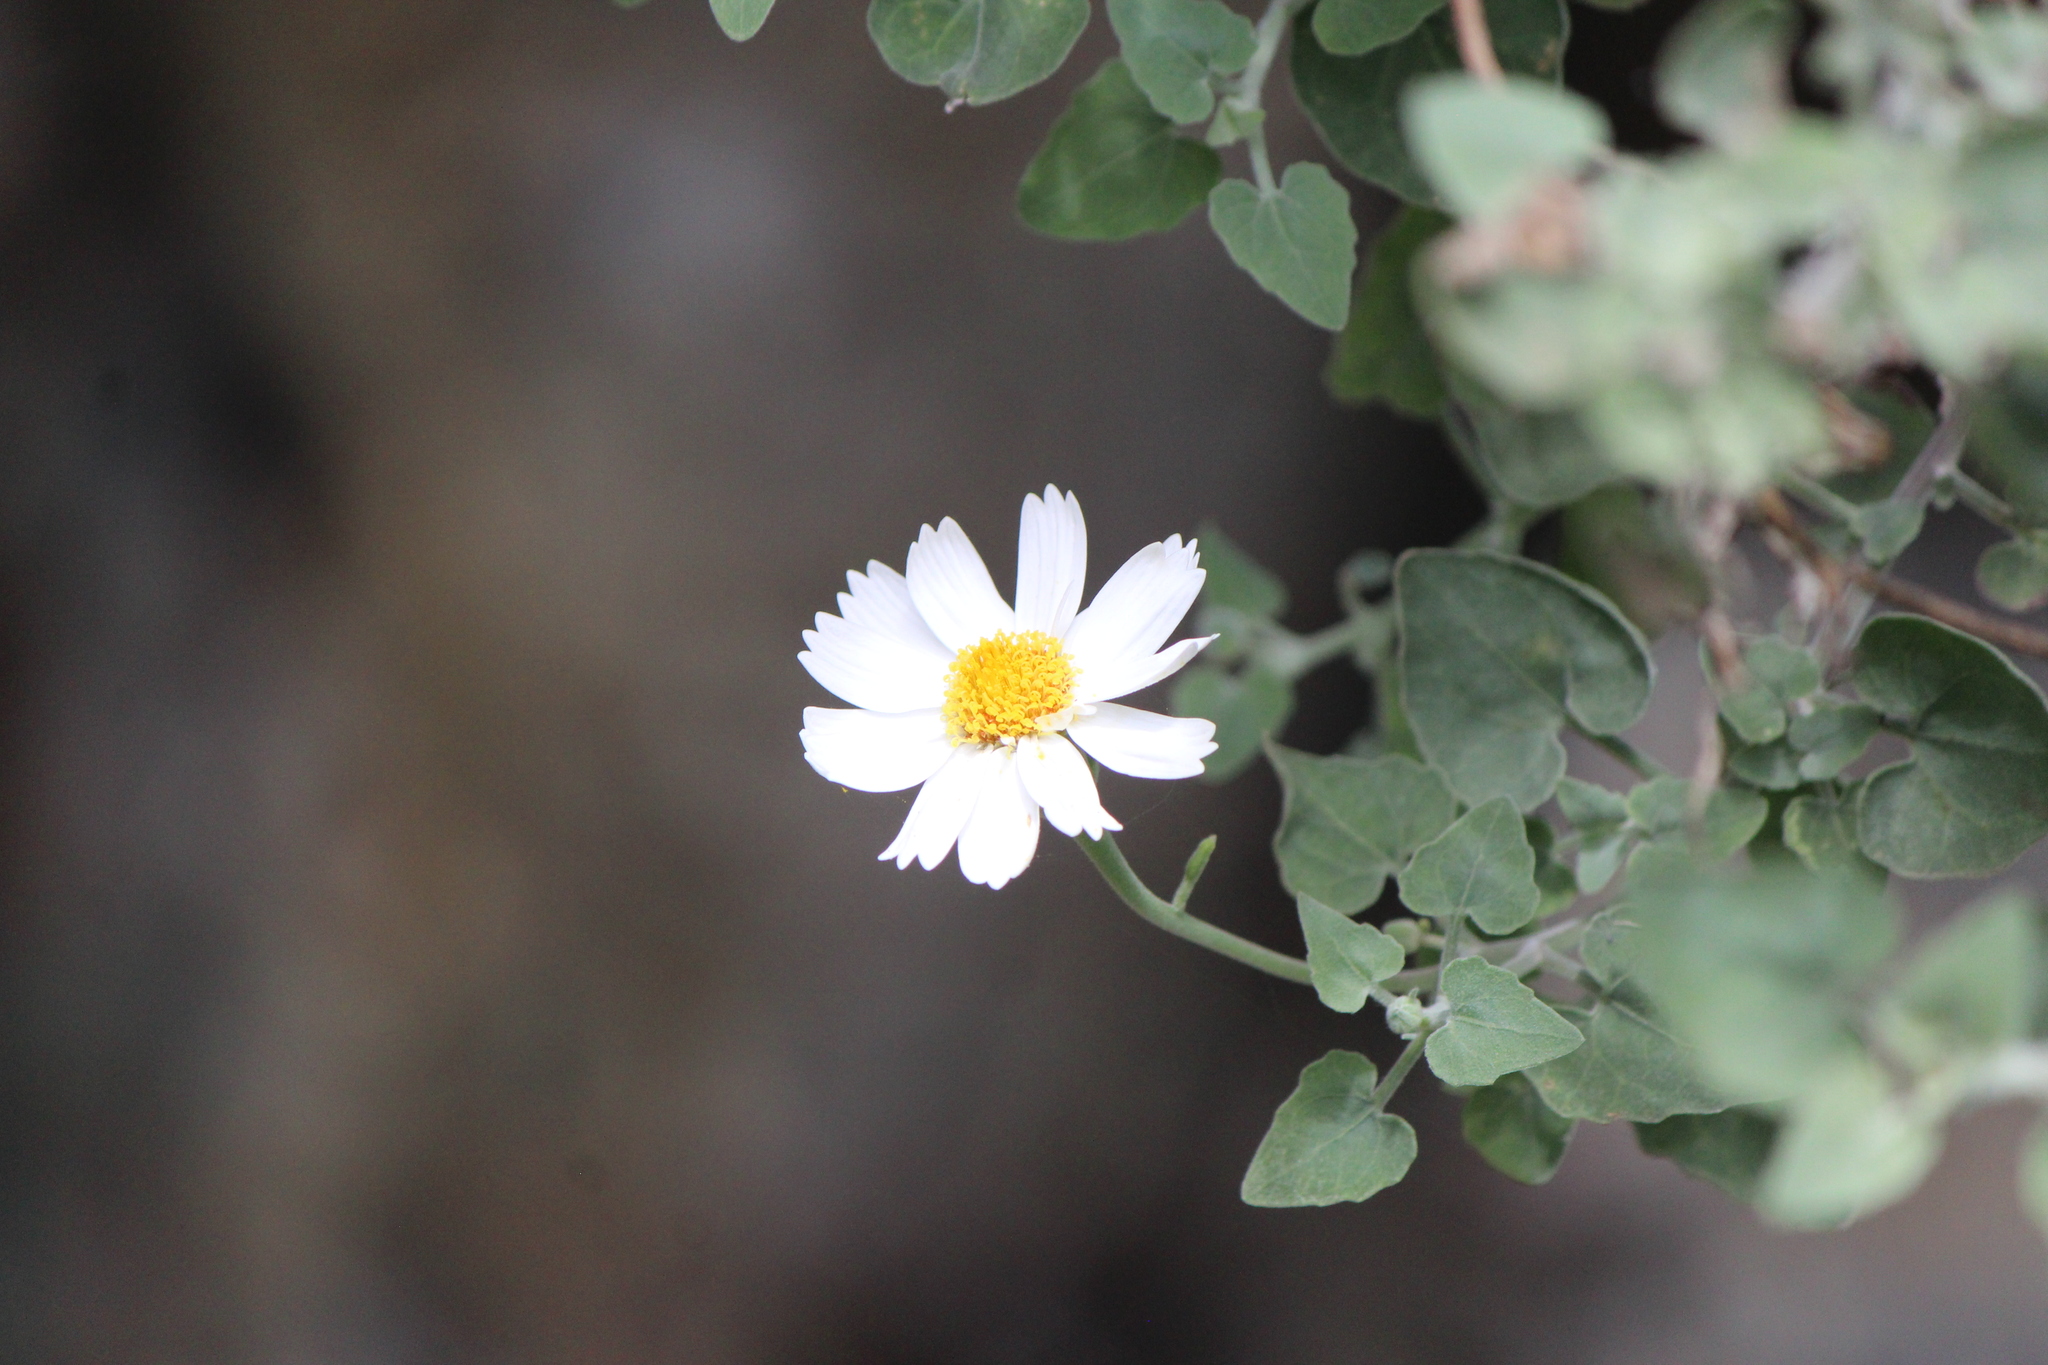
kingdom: Plantae
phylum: Tracheophyta
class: Magnoliopsida
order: Asterales
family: Asteraceae
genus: Eutetras
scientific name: Eutetras pringlei
